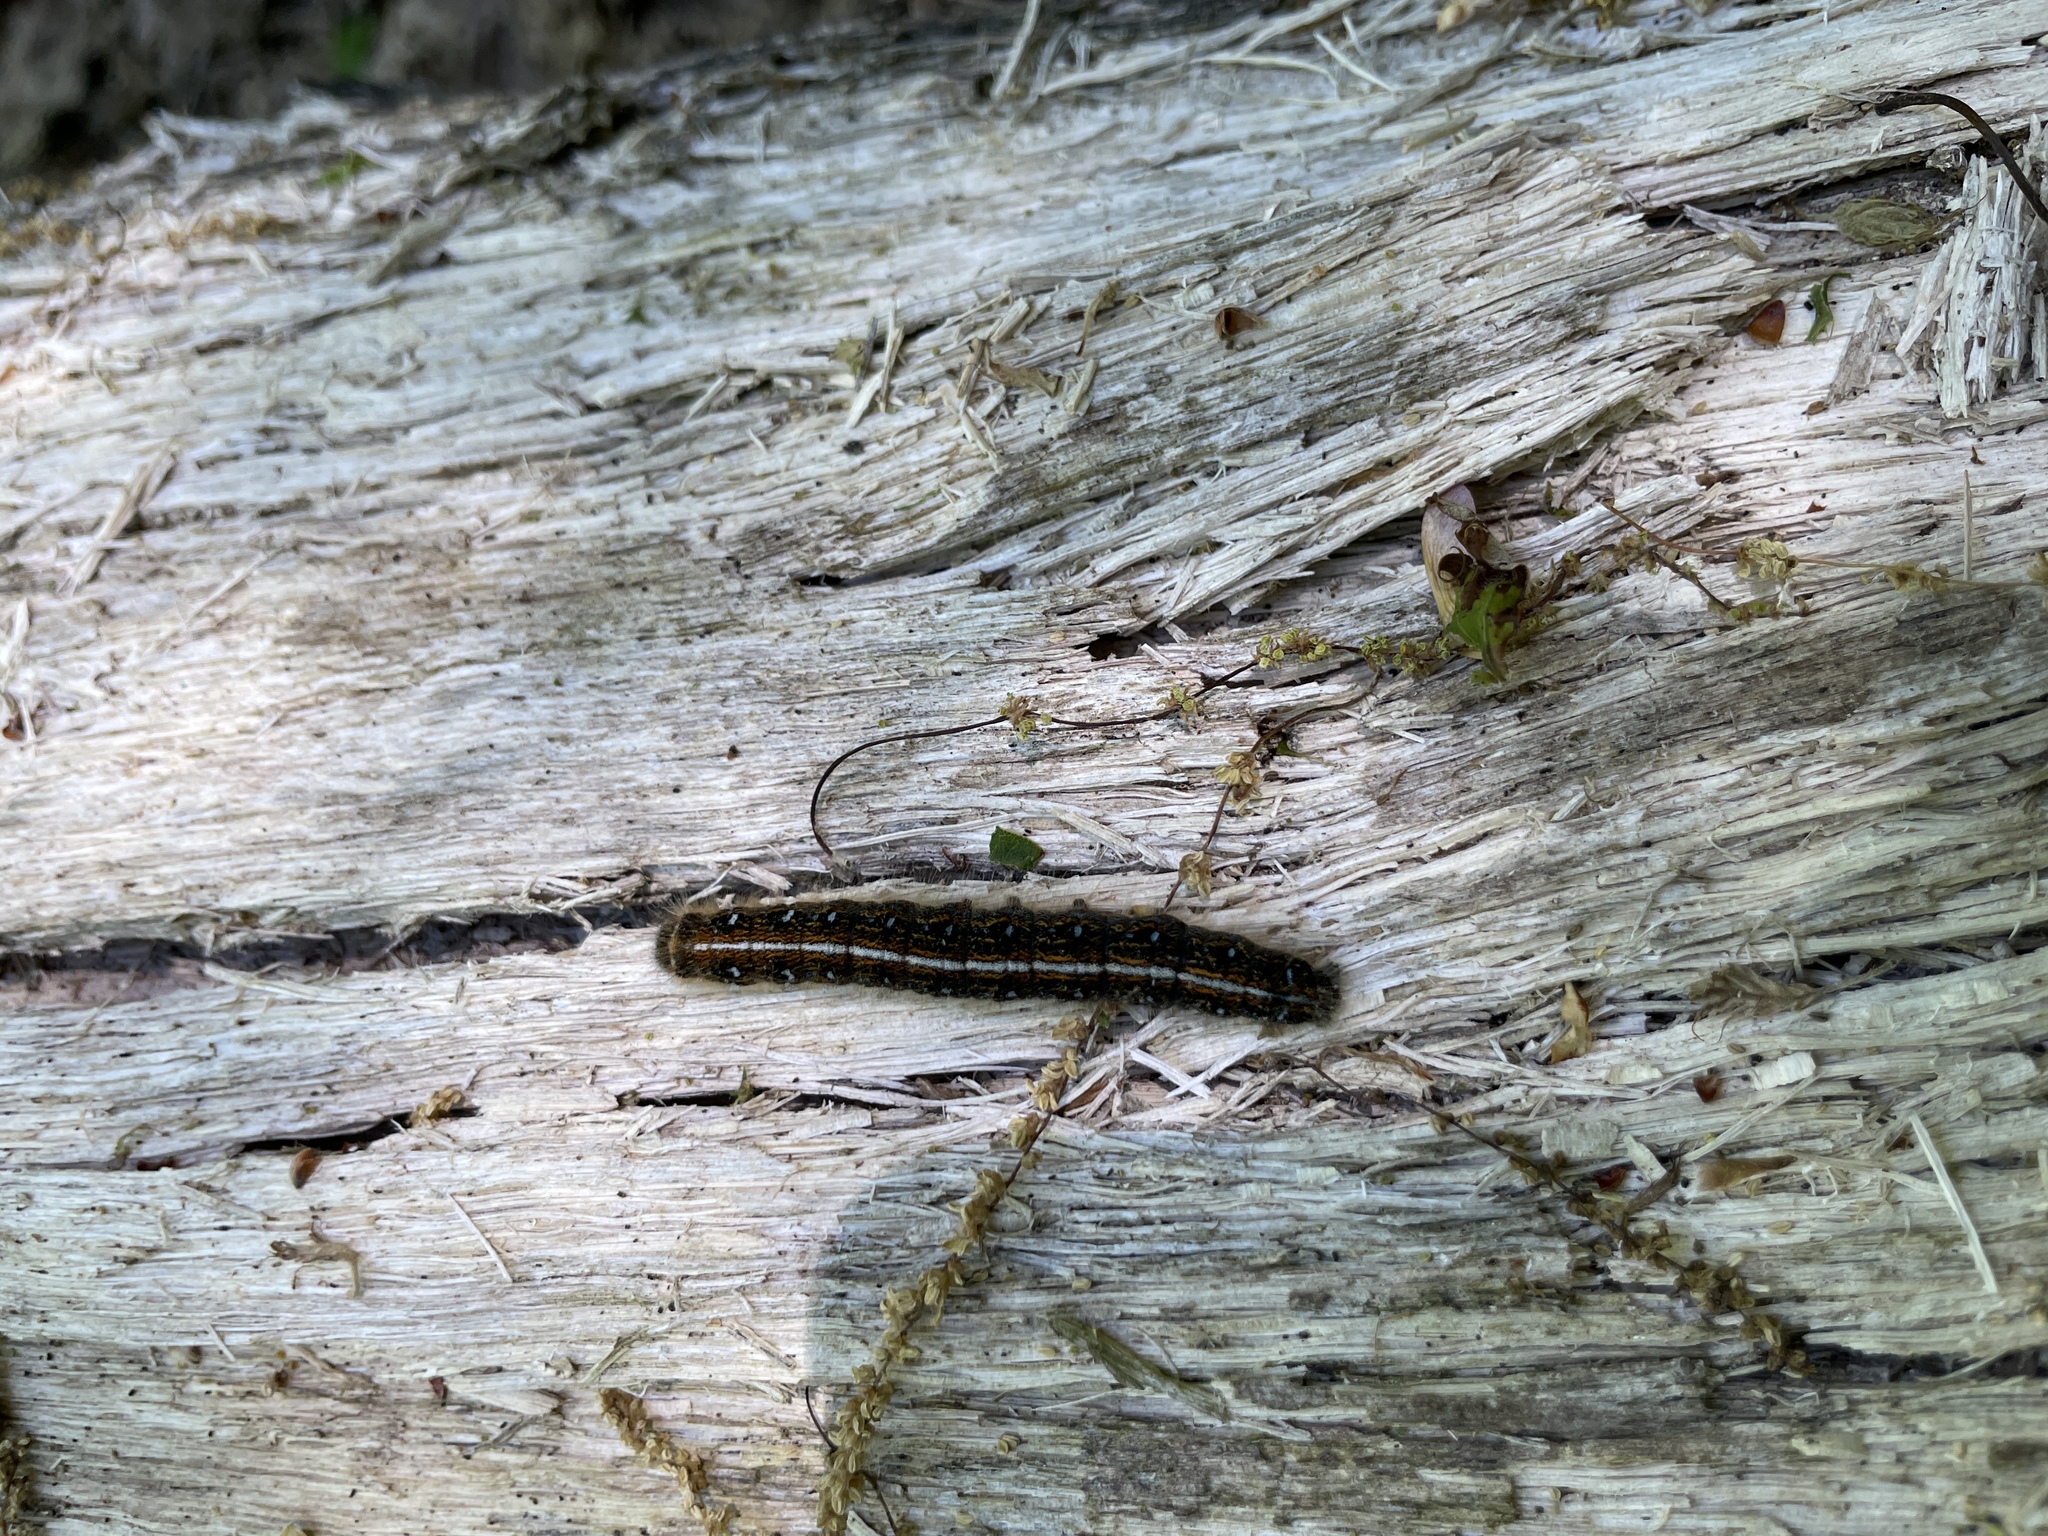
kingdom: Animalia
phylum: Arthropoda
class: Insecta
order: Lepidoptera
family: Lasiocampidae
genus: Malacosoma
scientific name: Malacosoma americana
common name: Eastern tent caterpillar moth
